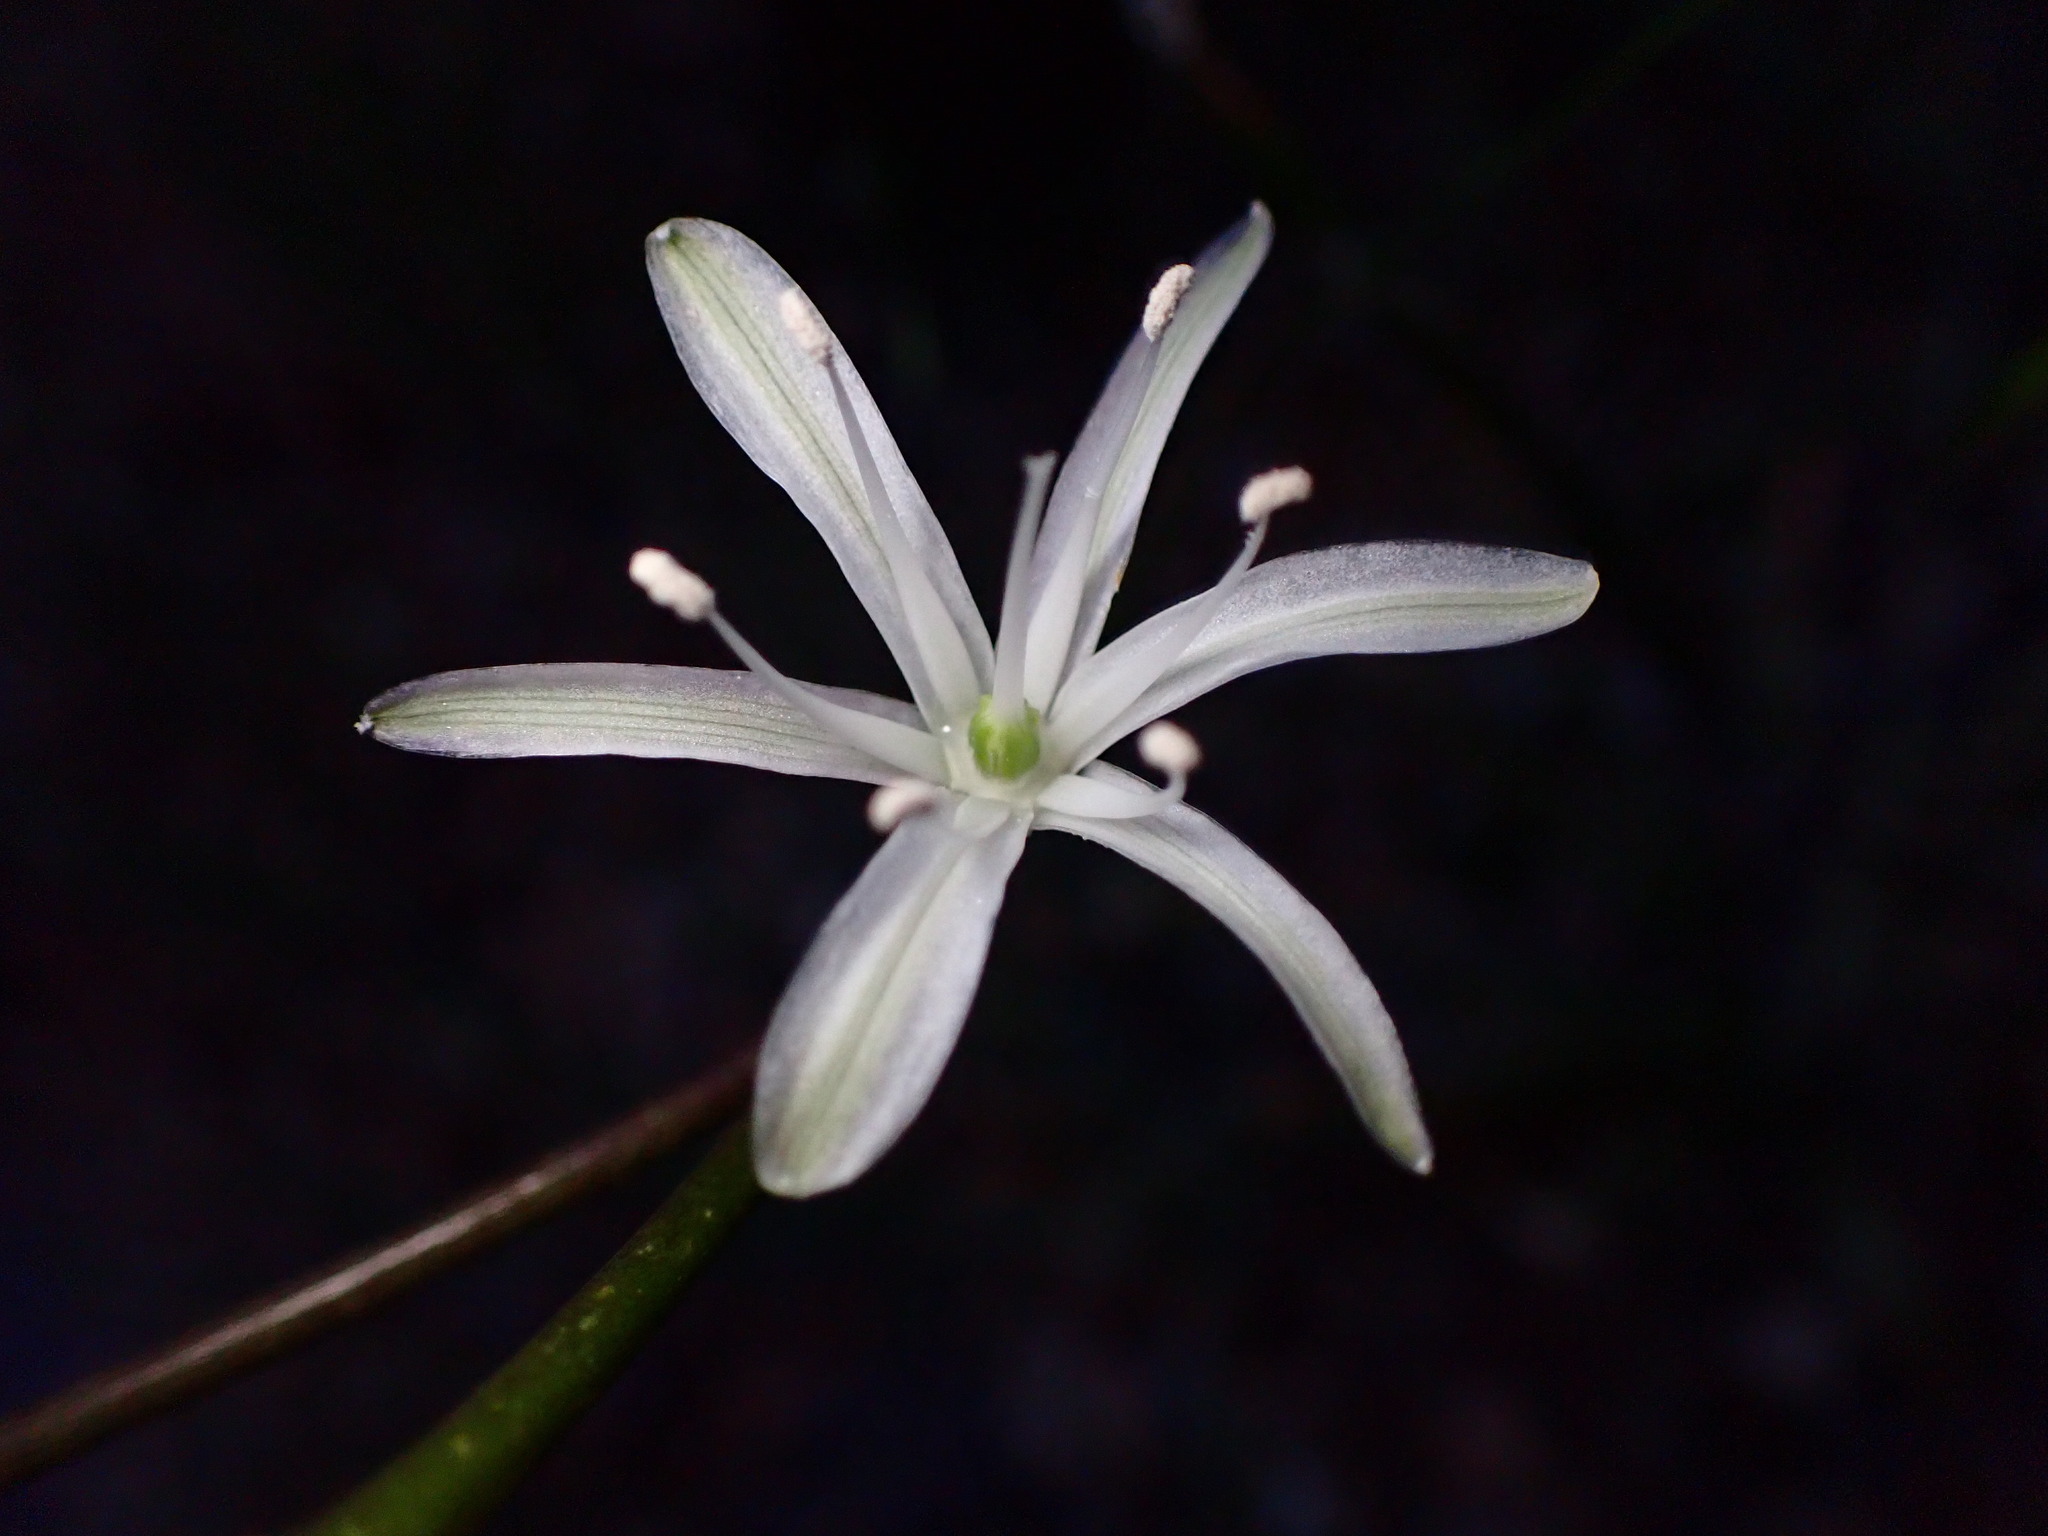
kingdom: Plantae
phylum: Tracheophyta
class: Liliopsida
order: Asparagales
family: Asparagaceae
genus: Chlorogalum
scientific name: Chlorogalum pomeridianum
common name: Amole
